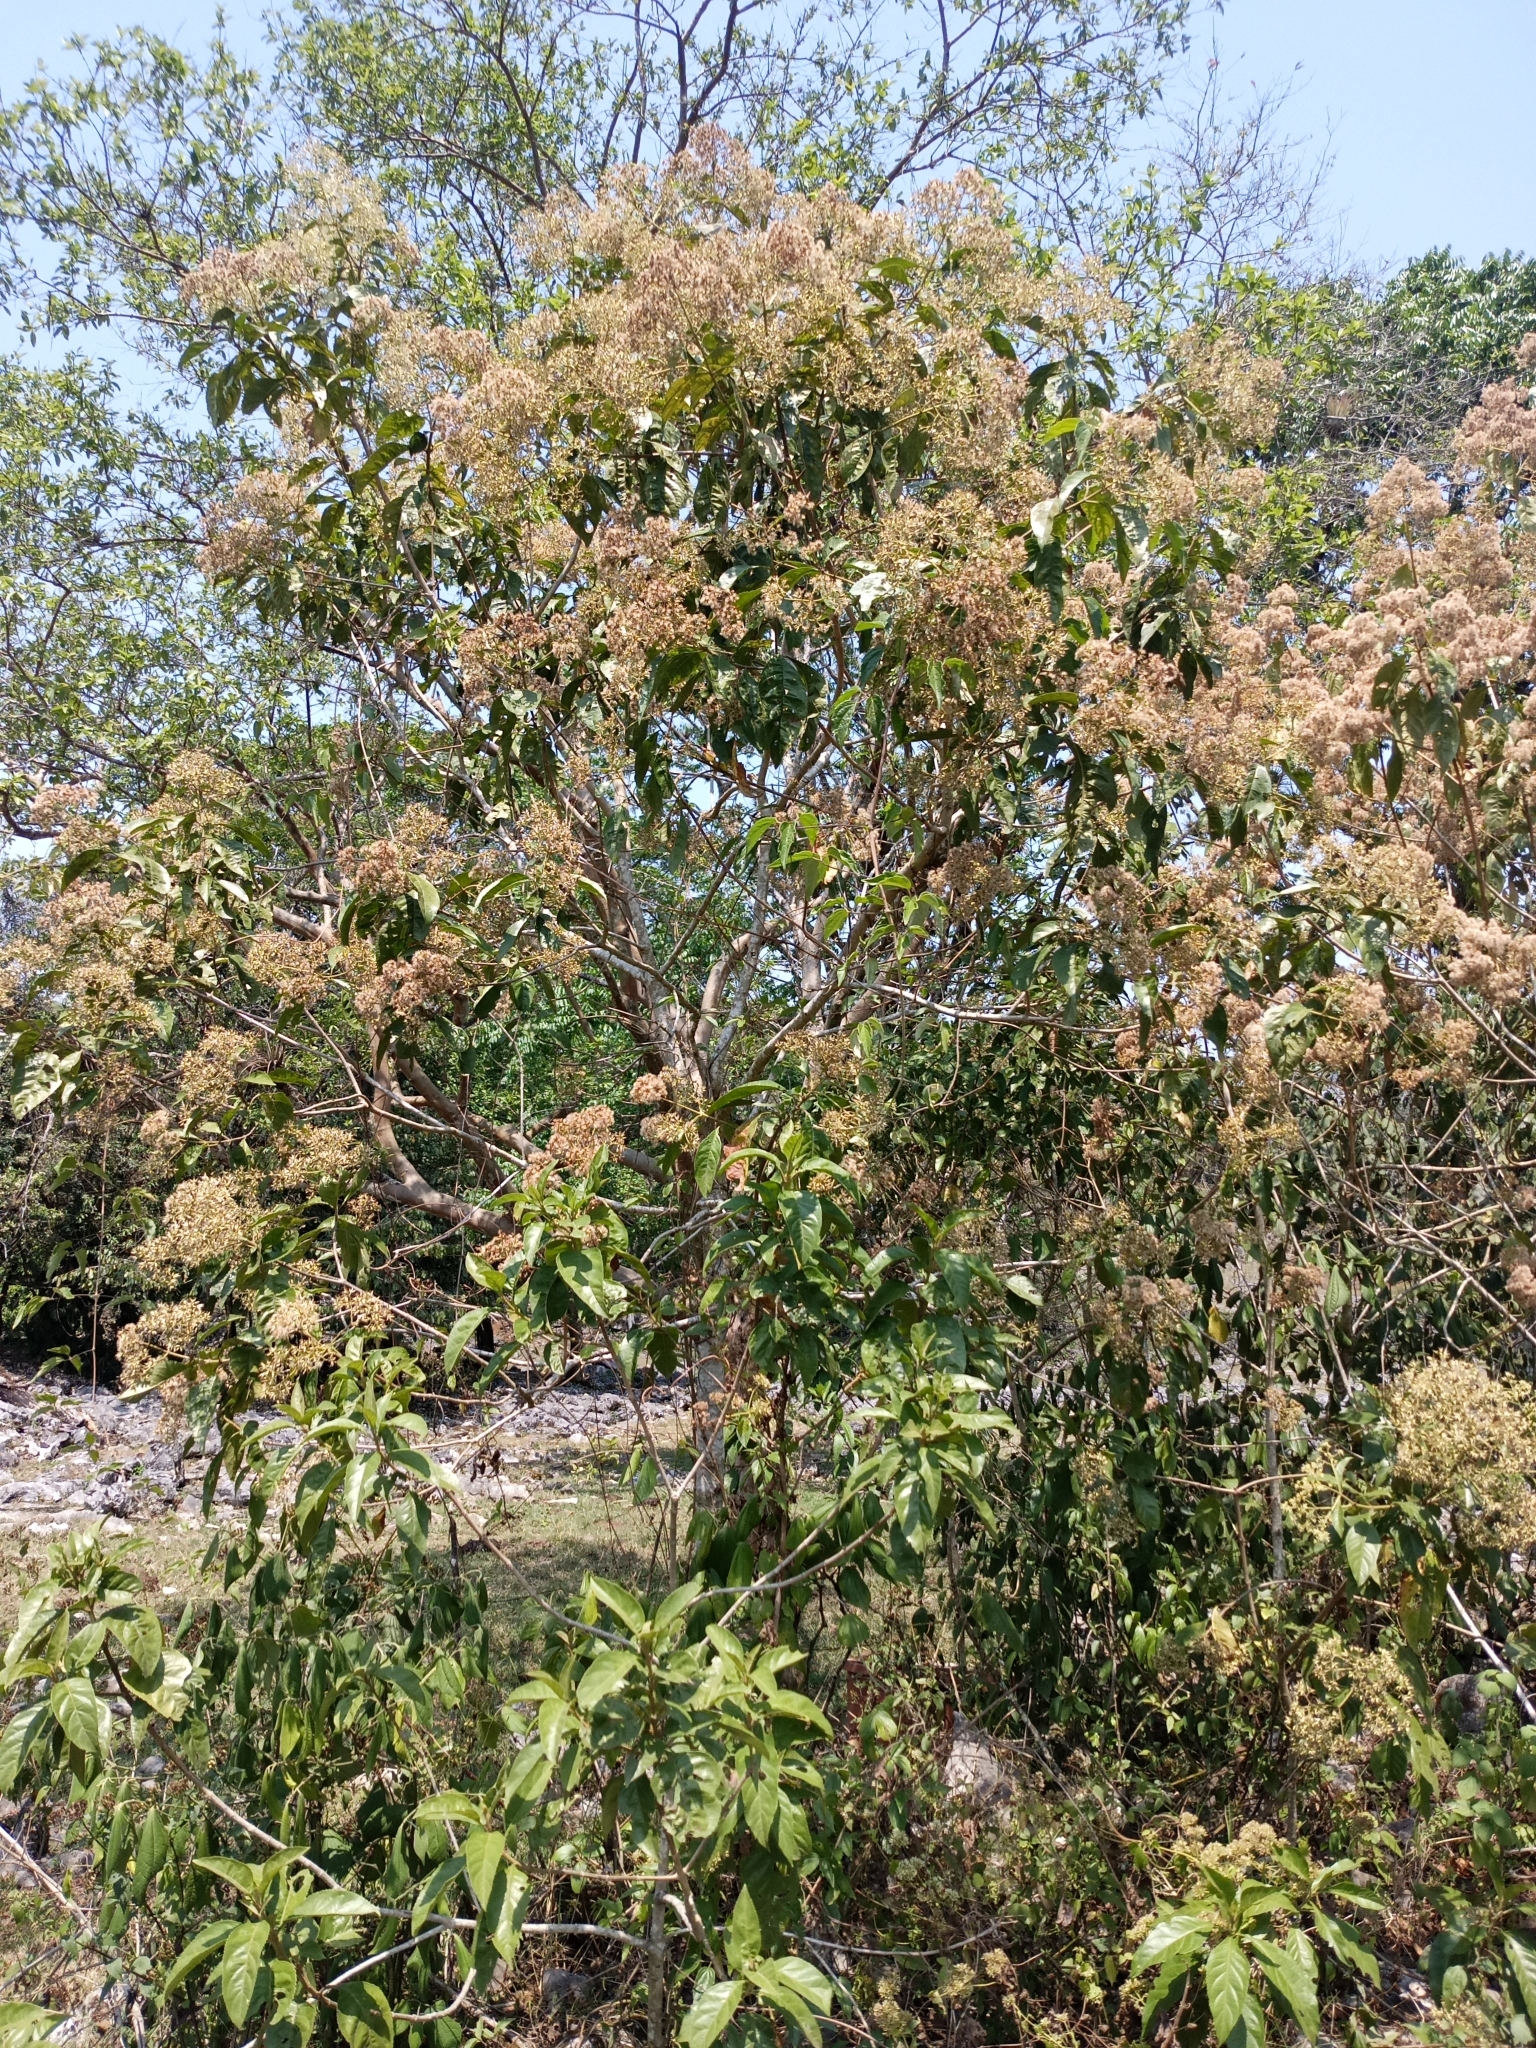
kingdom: Plantae
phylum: Tracheophyta
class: Magnoliopsida
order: Malvales
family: Malvaceae
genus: Heliocarpus
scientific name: Heliocarpus americanus
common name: White moho
